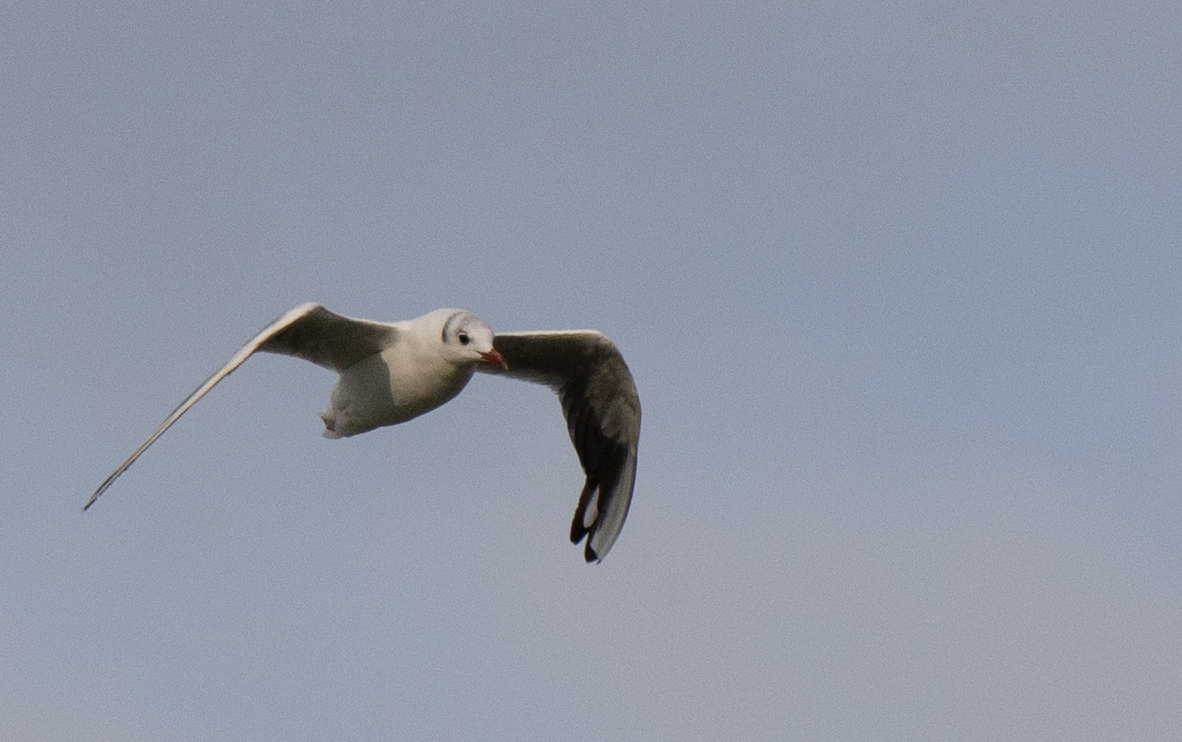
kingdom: Animalia
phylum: Chordata
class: Aves
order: Charadriiformes
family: Laridae
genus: Chroicocephalus
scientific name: Chroicocephalus ridibundus
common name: Black-headed gull
